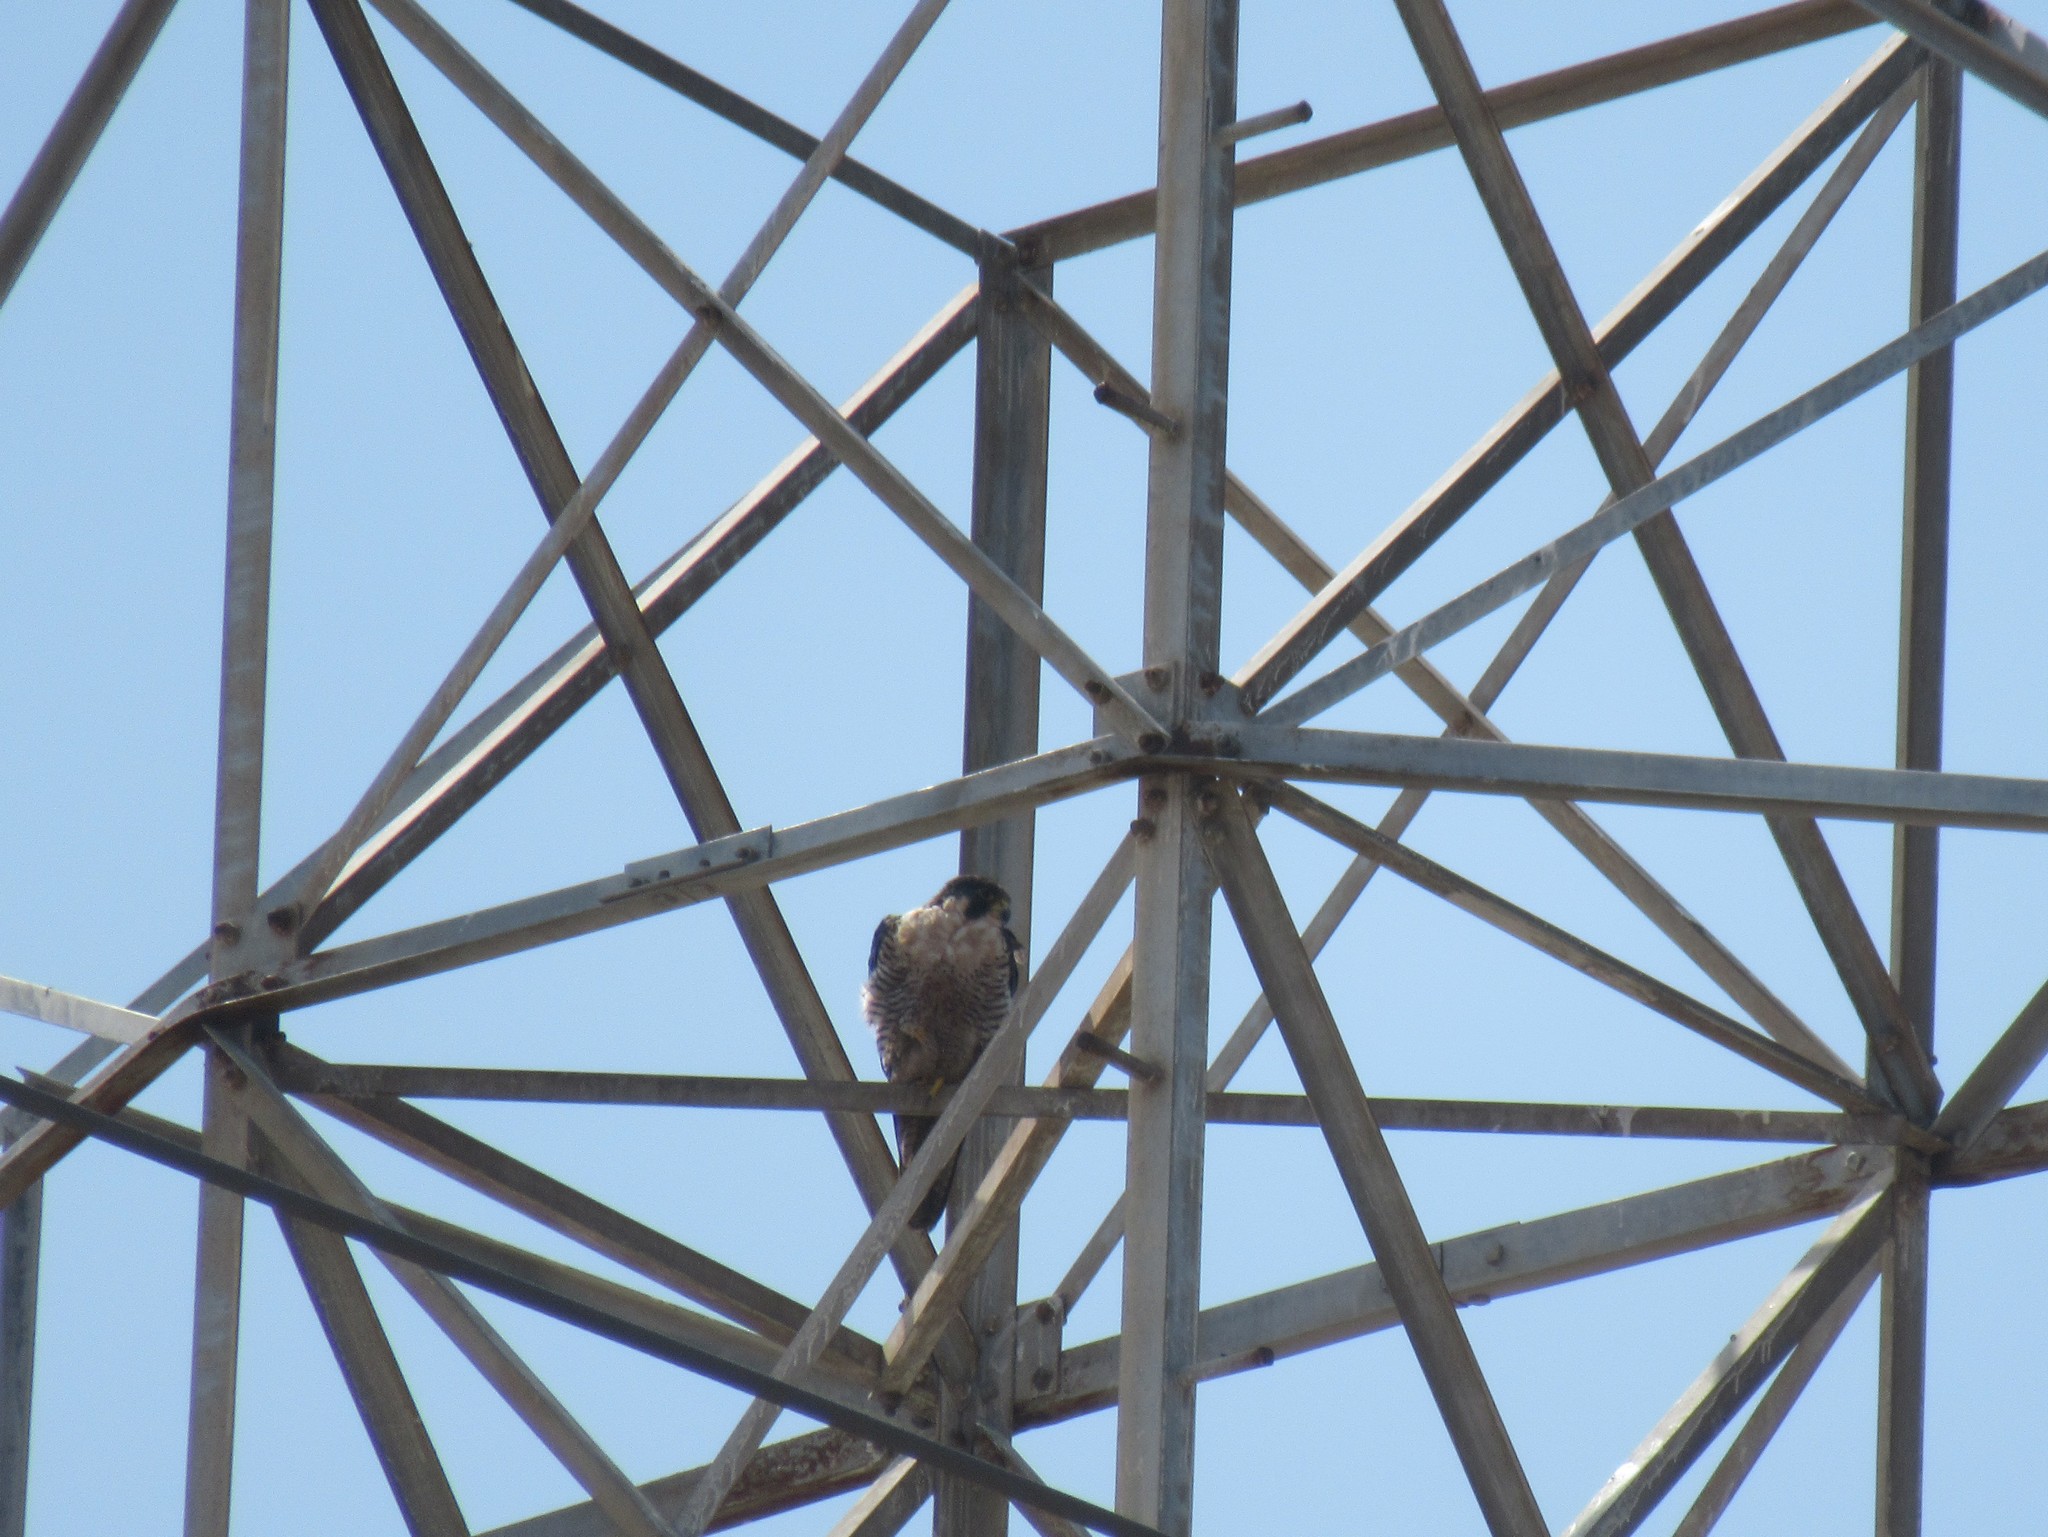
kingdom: Animalia
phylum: Chordata
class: Aves
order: Falconiformes
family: Falconidae
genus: Falco
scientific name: Falco peregrinus
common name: Peregrine falcon
